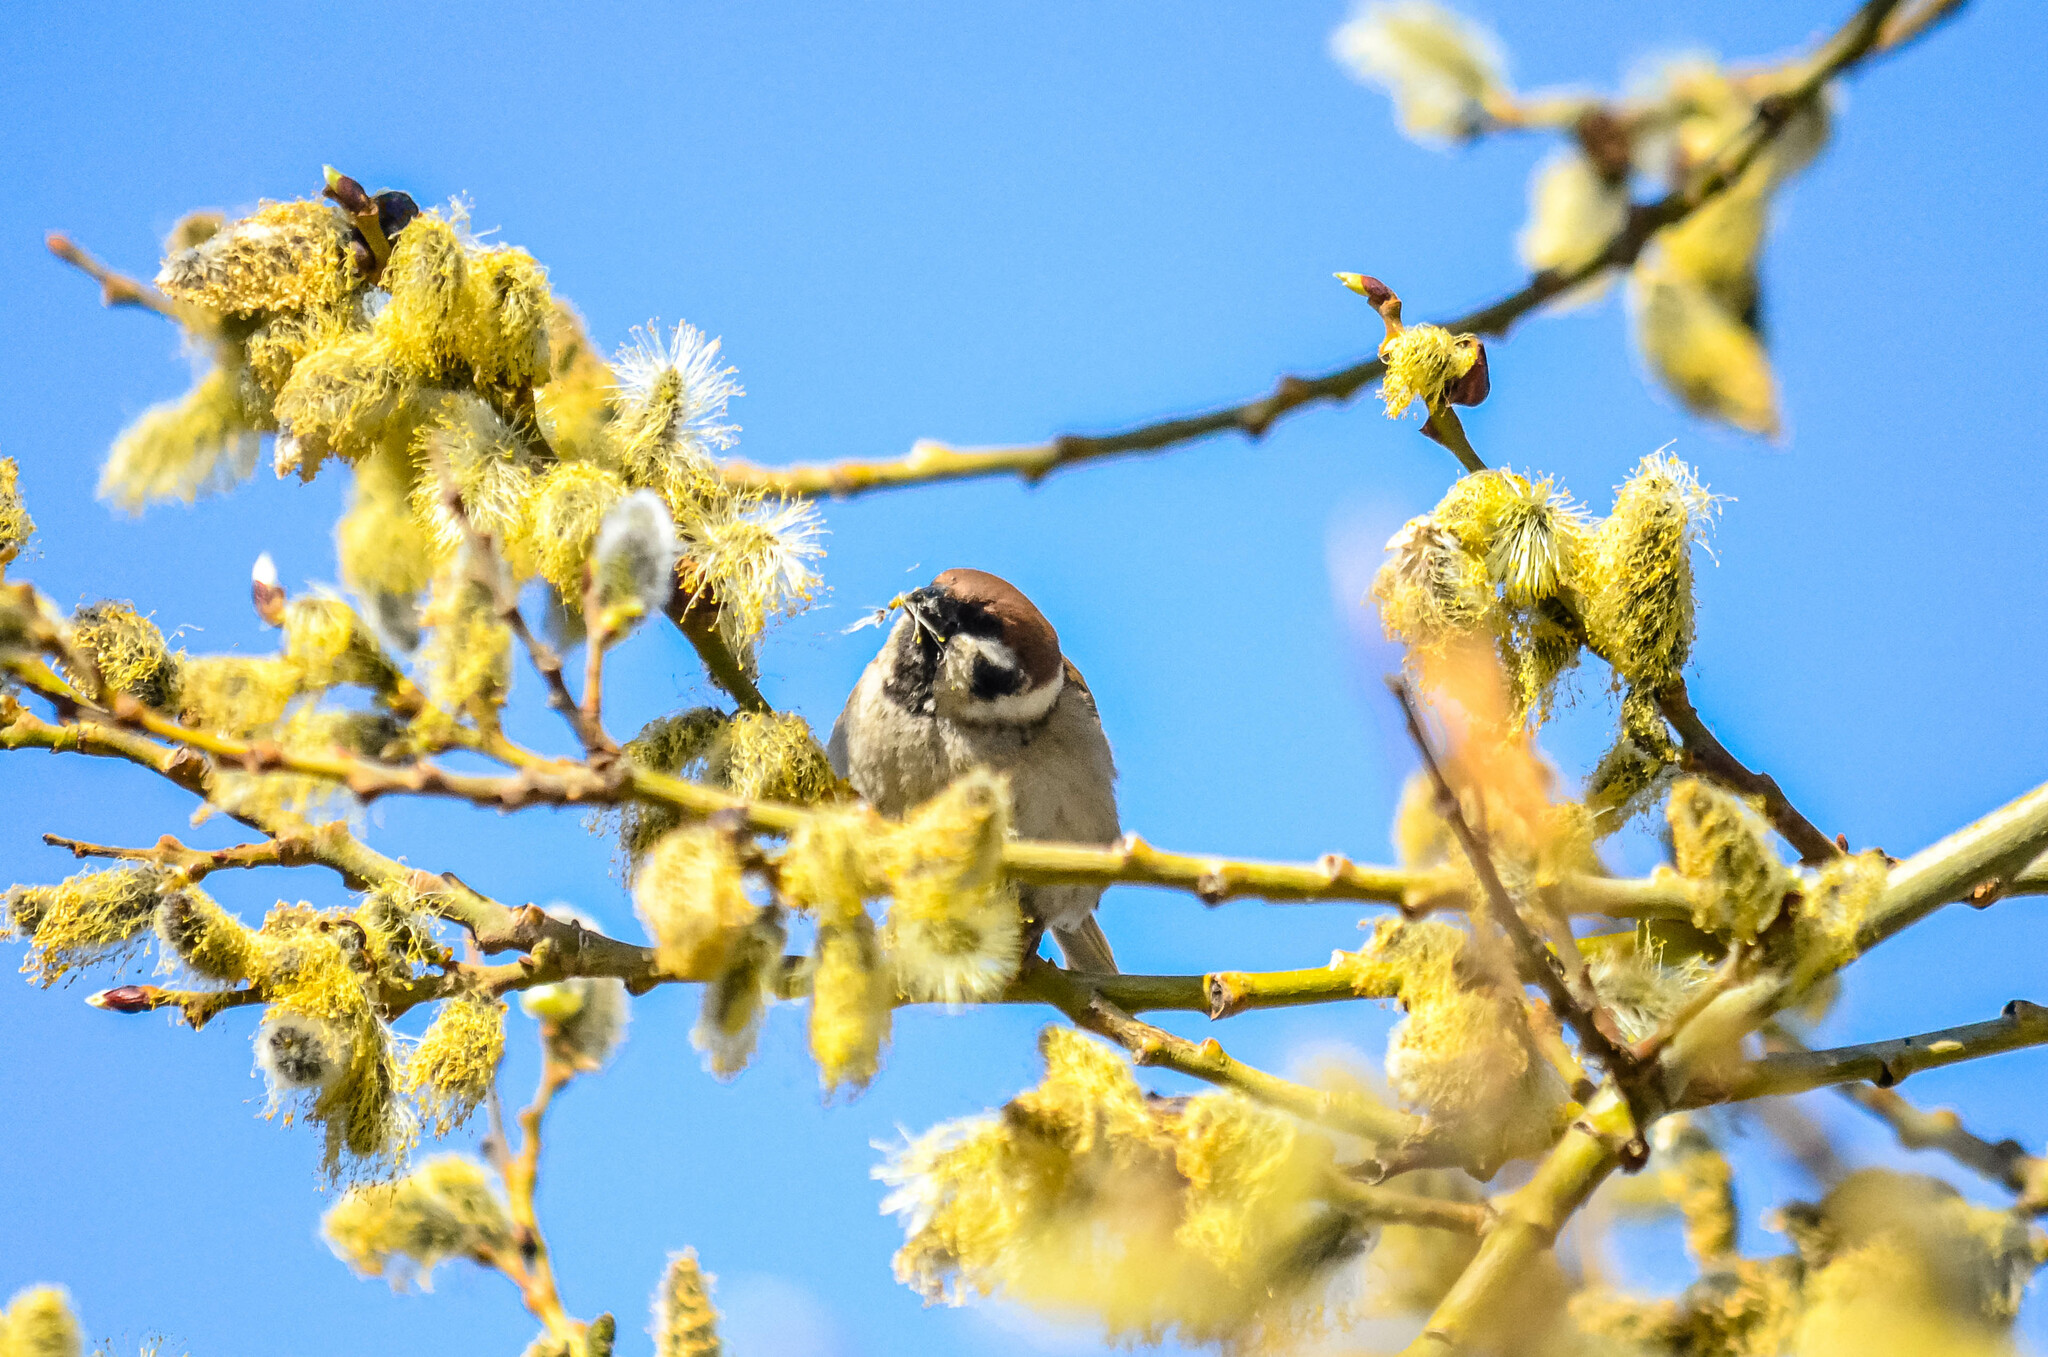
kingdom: Animalia
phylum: Chordata
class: Aves
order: Passeriformes
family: Passeridae
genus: Passer
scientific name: Passer montanus
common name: Eurasian tree sparrow
